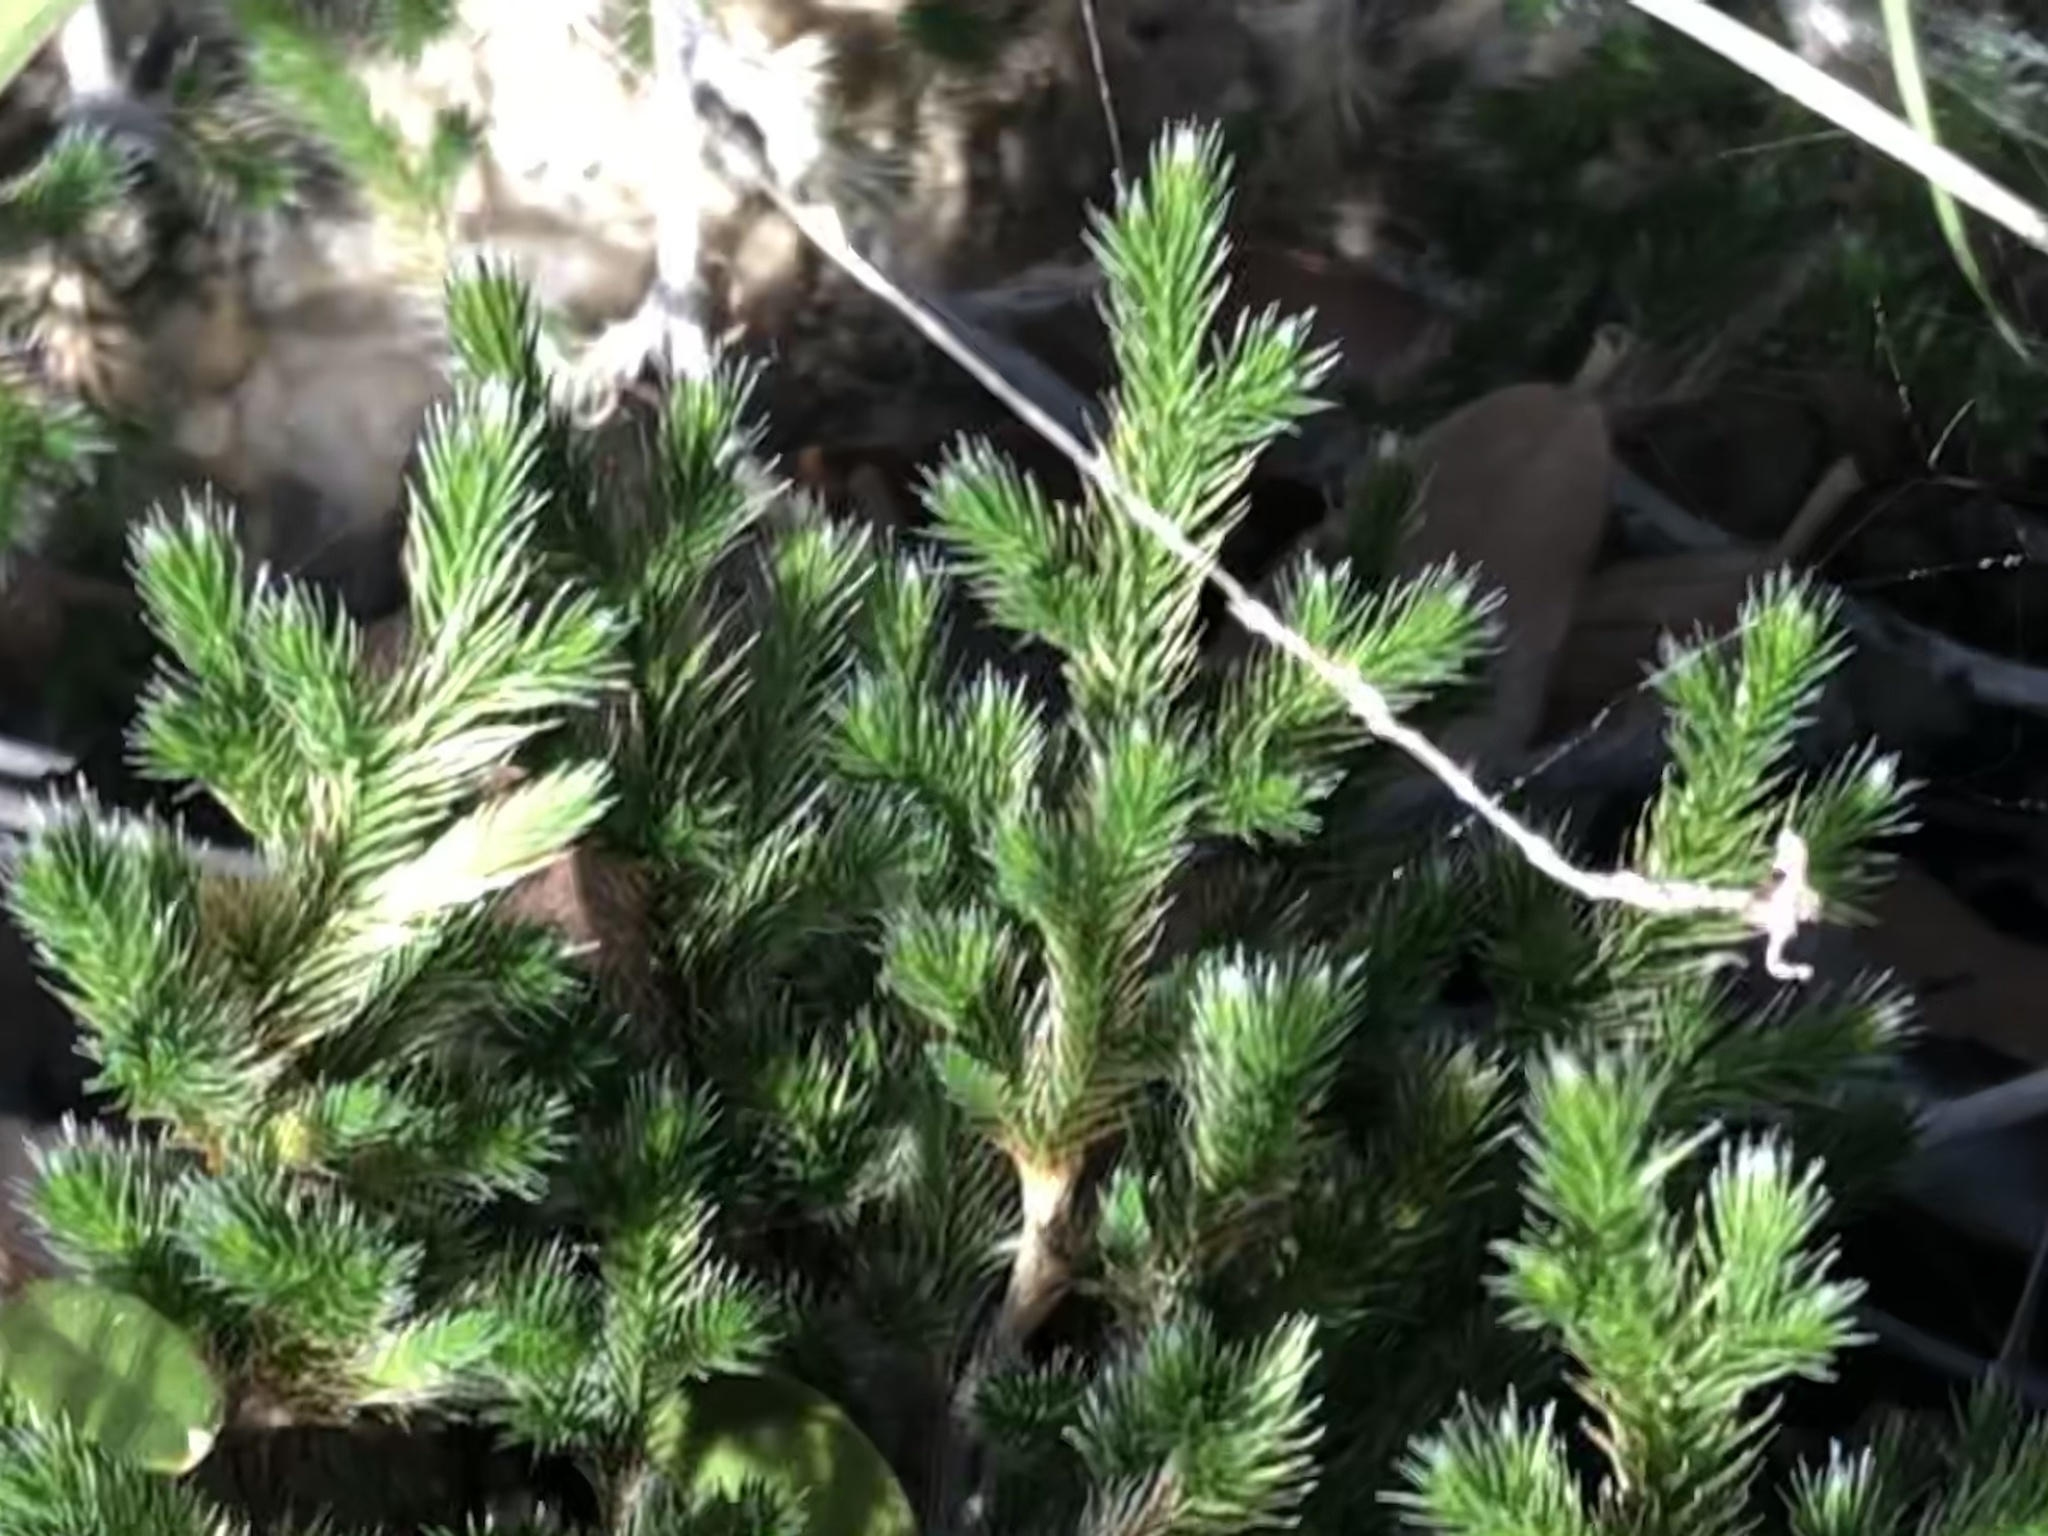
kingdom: Plantae
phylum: Tracheophyta
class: Lycopodiopsida
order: Selaginellales
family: Selaginellaceae
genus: Selaginella
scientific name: Selaginella rupincola
